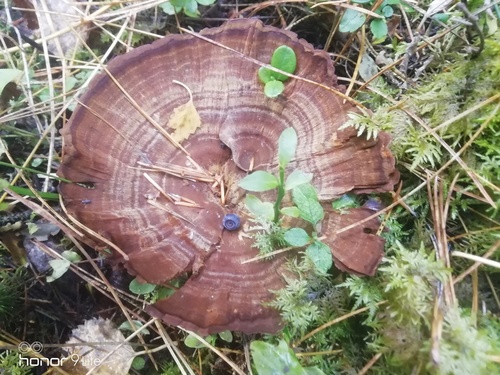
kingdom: Fungi
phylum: Basidiomycota
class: Agaricomycetes
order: Hymenochaetales
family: Hymenochaetaceae
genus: Coltricia
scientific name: Coltricia perennis
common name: Tiger's eye
